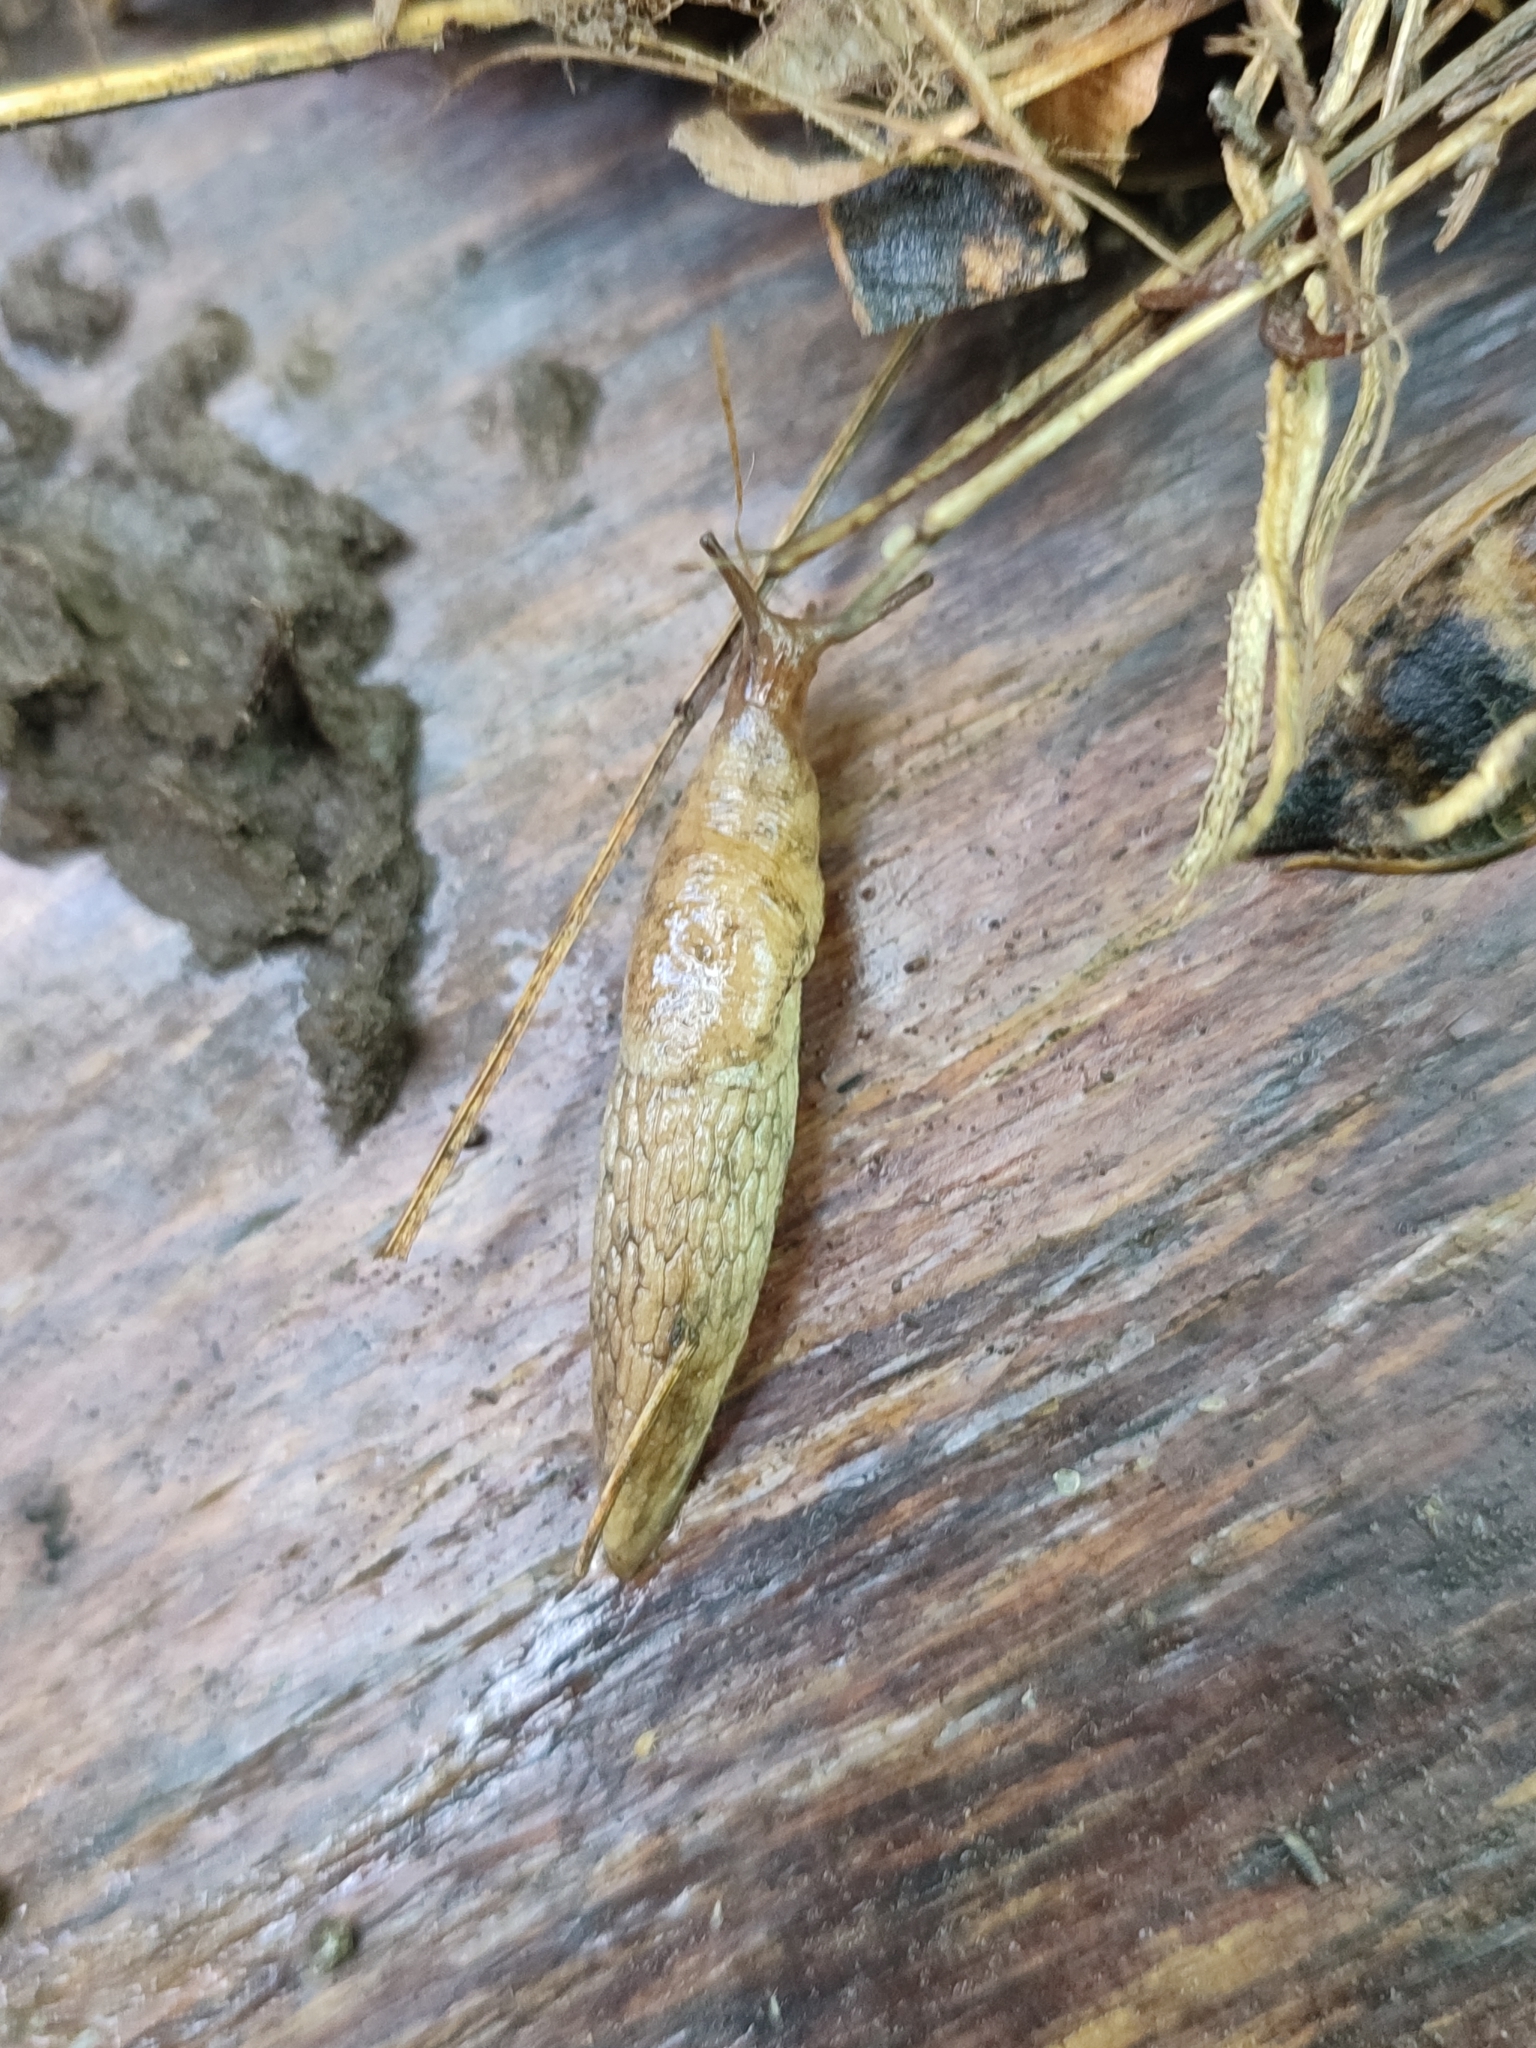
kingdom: Animalia
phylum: Mollusca
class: Gastropoda
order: Stylommatophora
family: Agriolimacidae
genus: Deroceras
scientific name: Deroceras reticulatum
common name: Gray field slug
